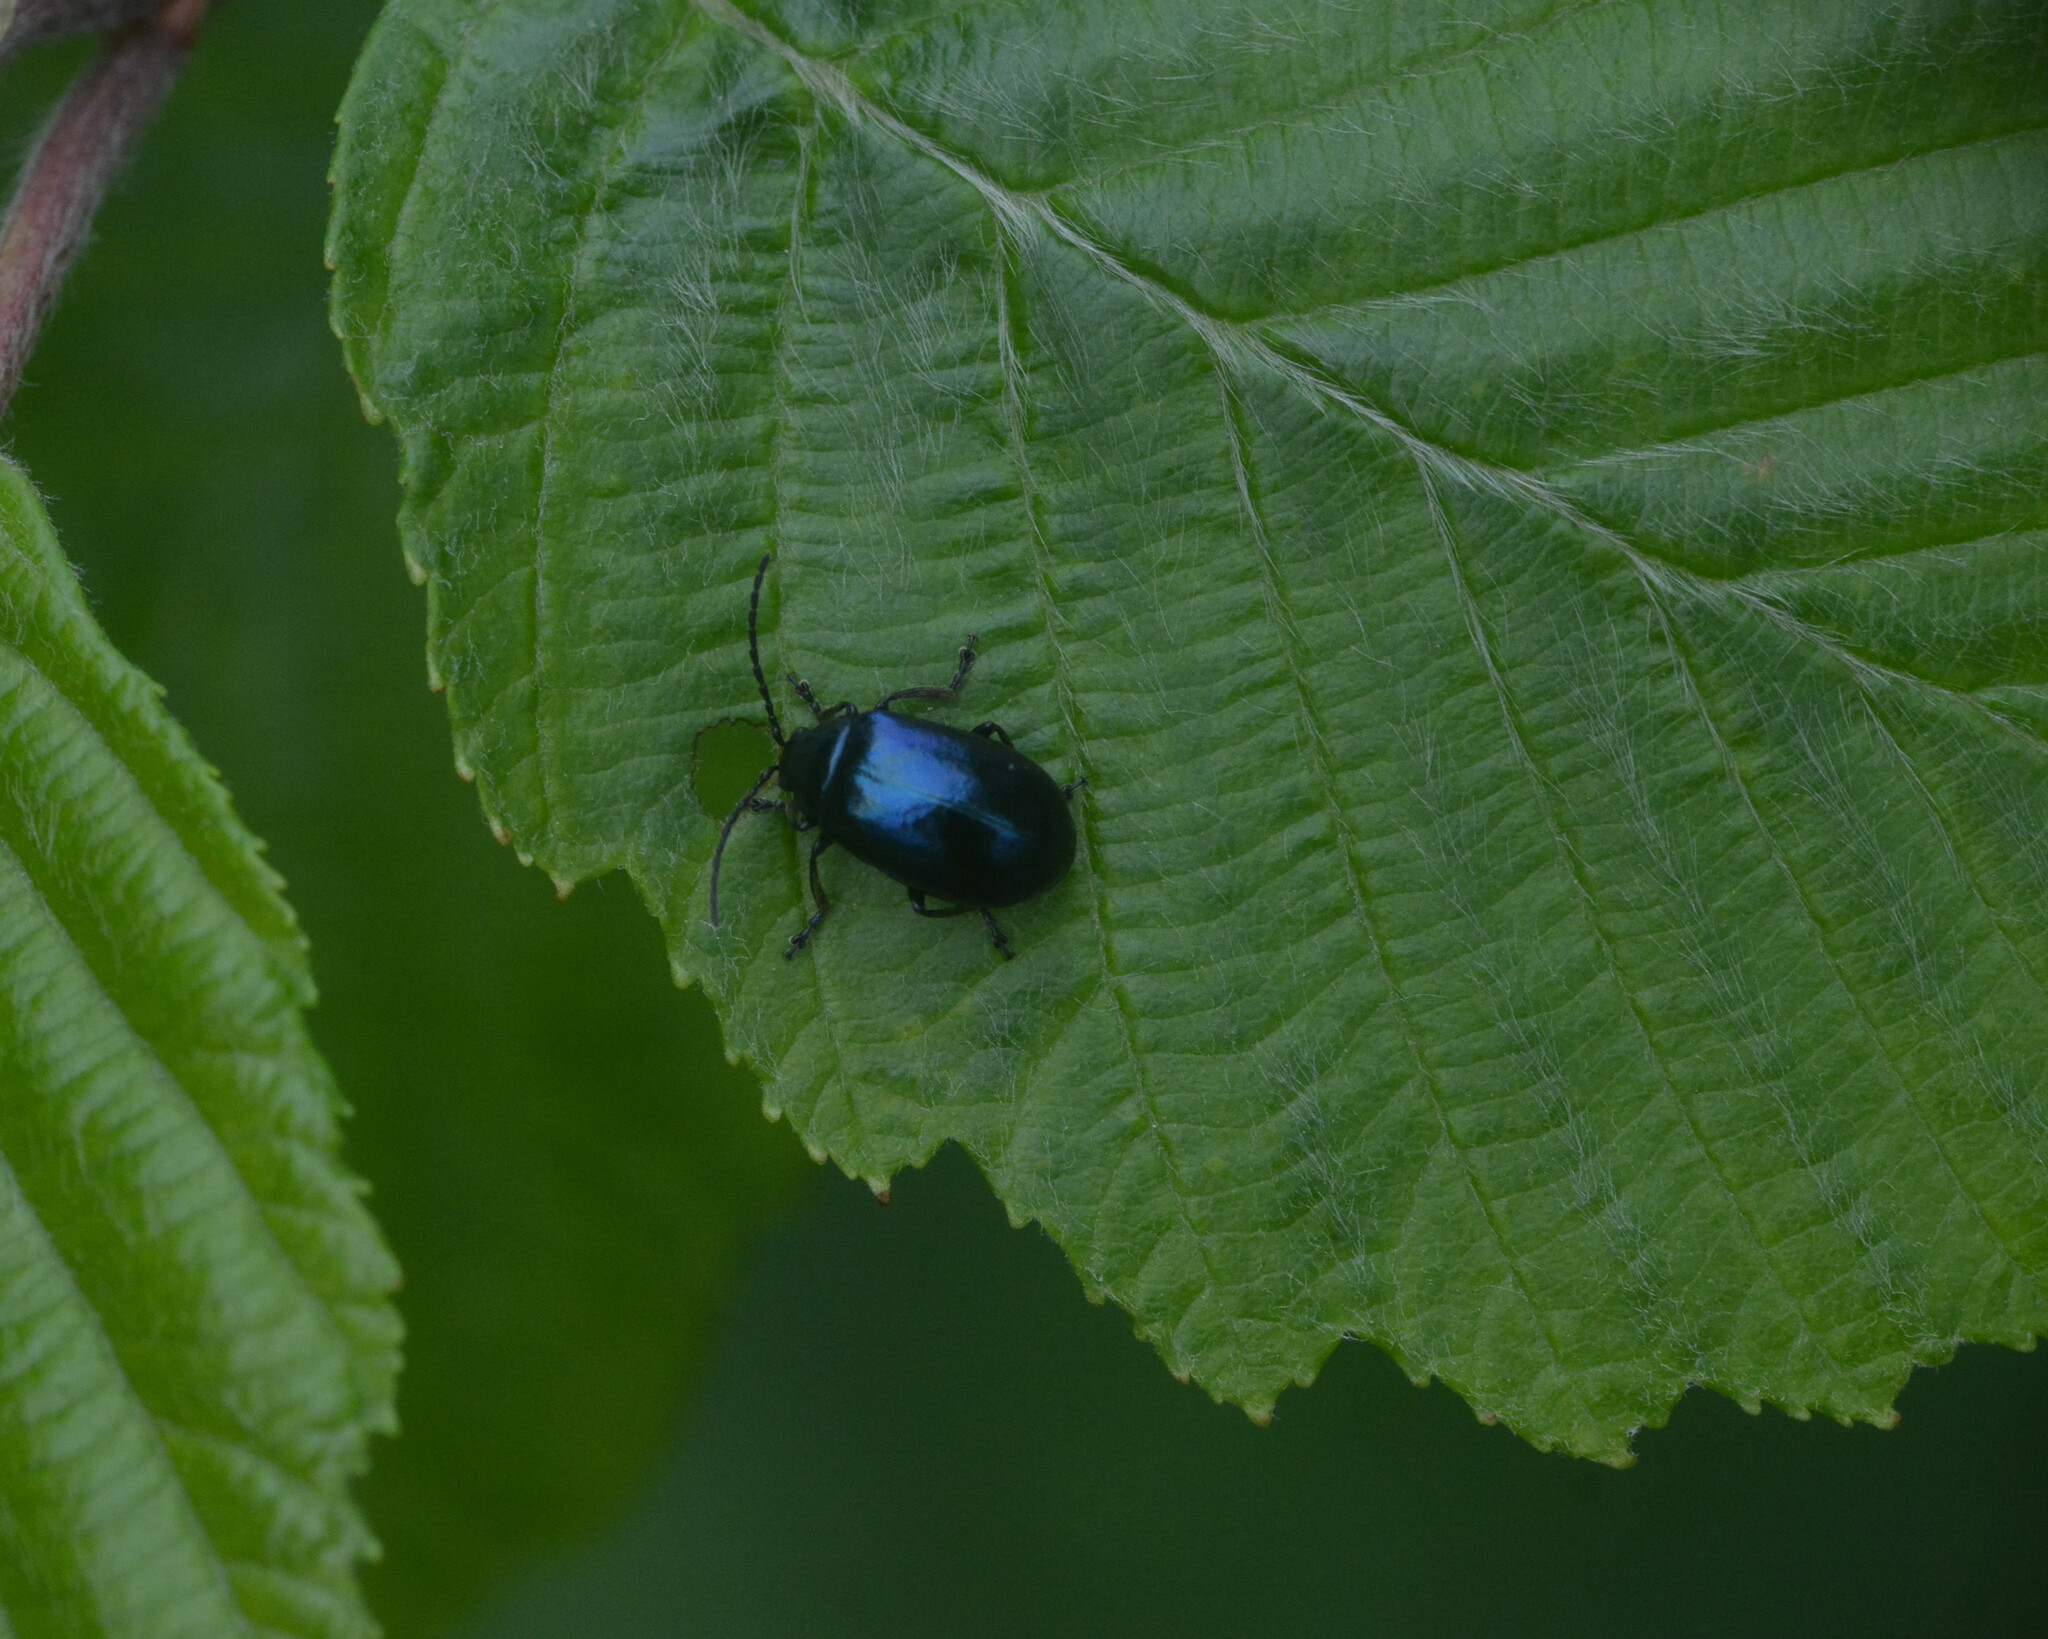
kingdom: Animalia
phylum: Arthropoda
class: Insecta
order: Coleoptera
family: Chrysomelidae
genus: Agelastica
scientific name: Agelastica alni
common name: Alder leaf beetle
